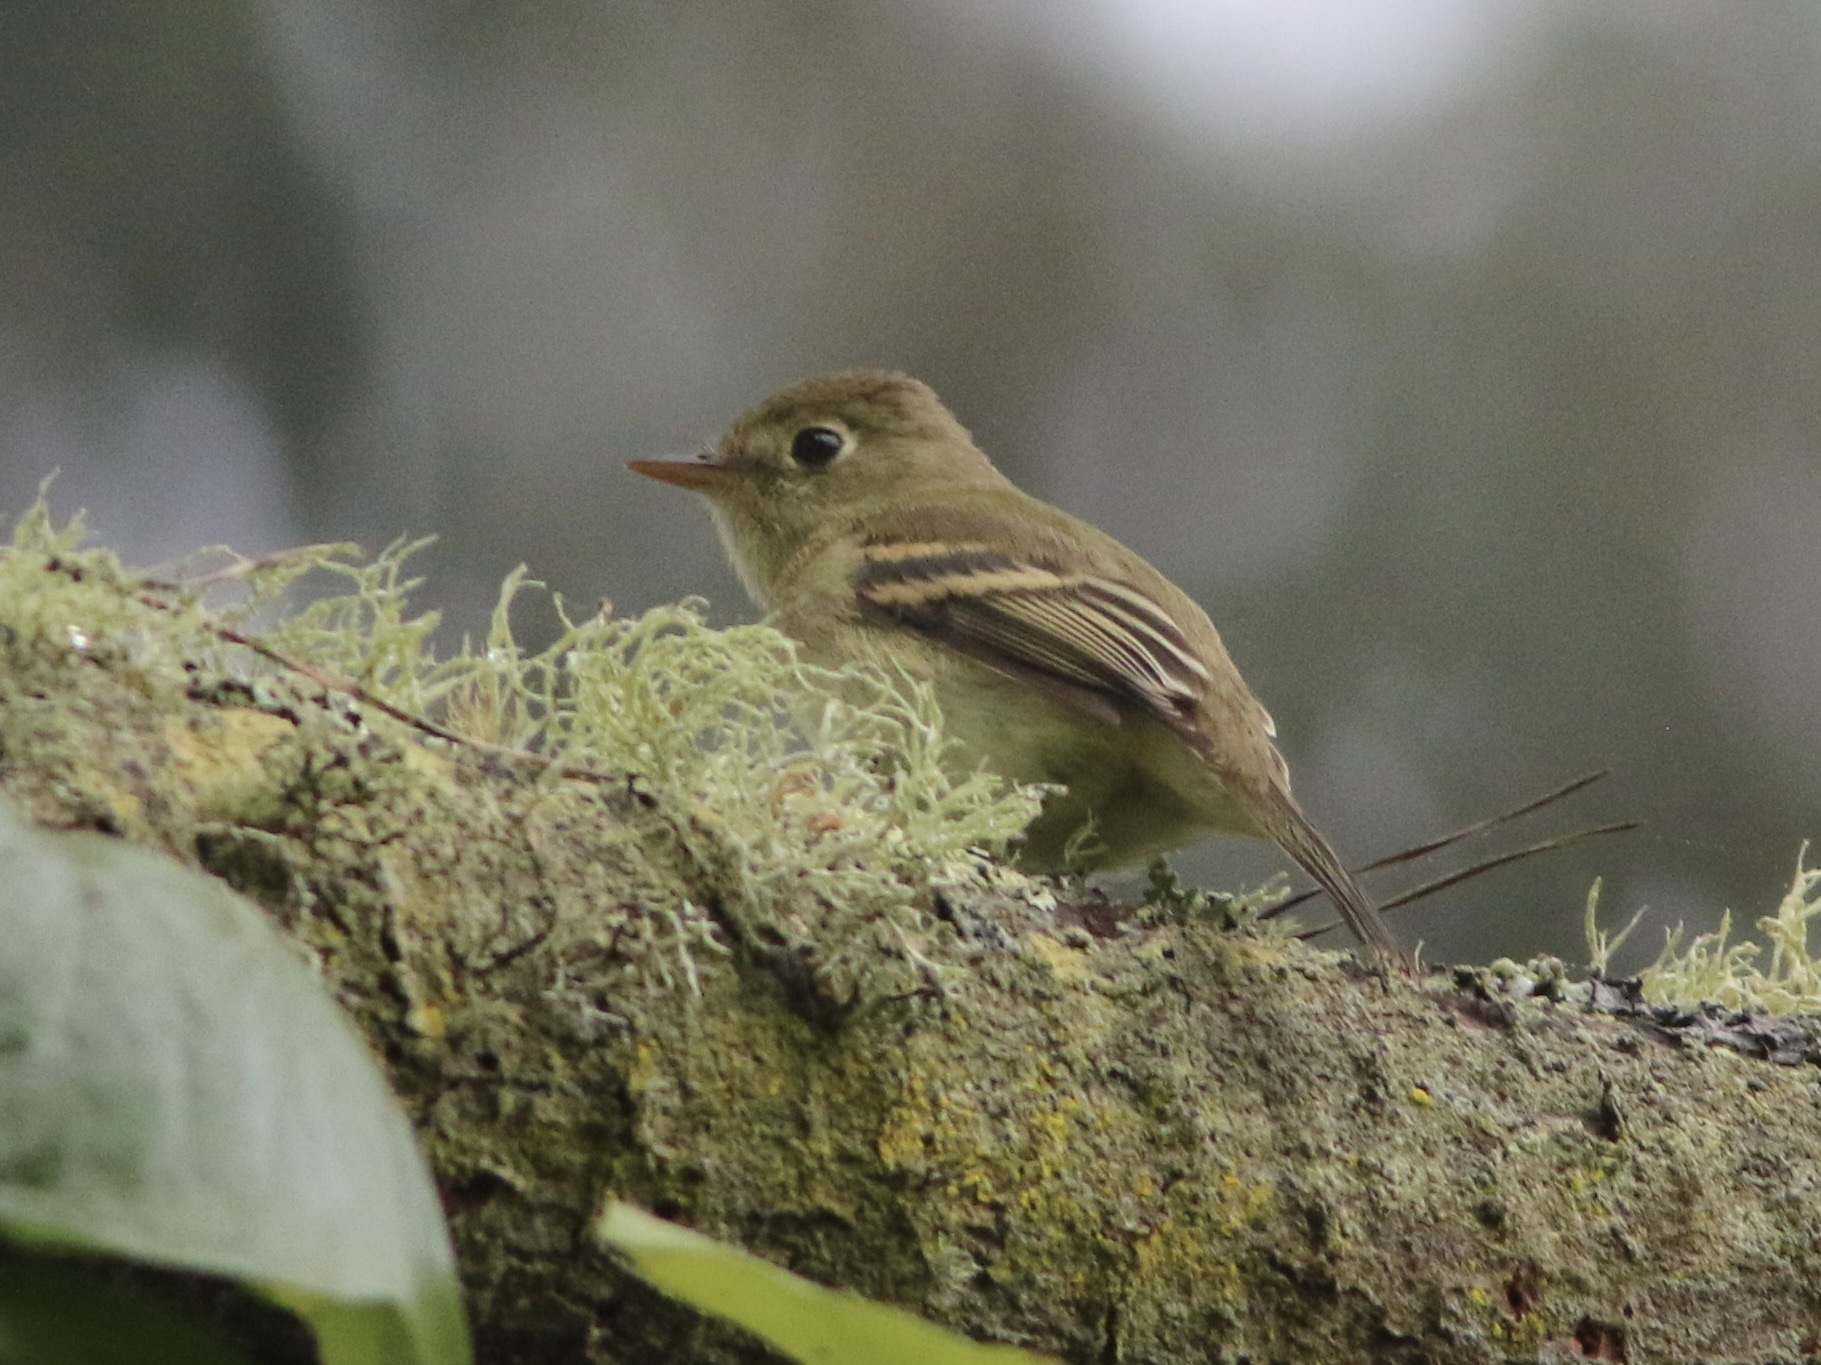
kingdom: Animalia
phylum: Chordata
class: Aves
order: Passeriformes
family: Tyrannidae
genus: Empidonax
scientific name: Empidonax difficilis
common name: Pacific-slope flycatcher
